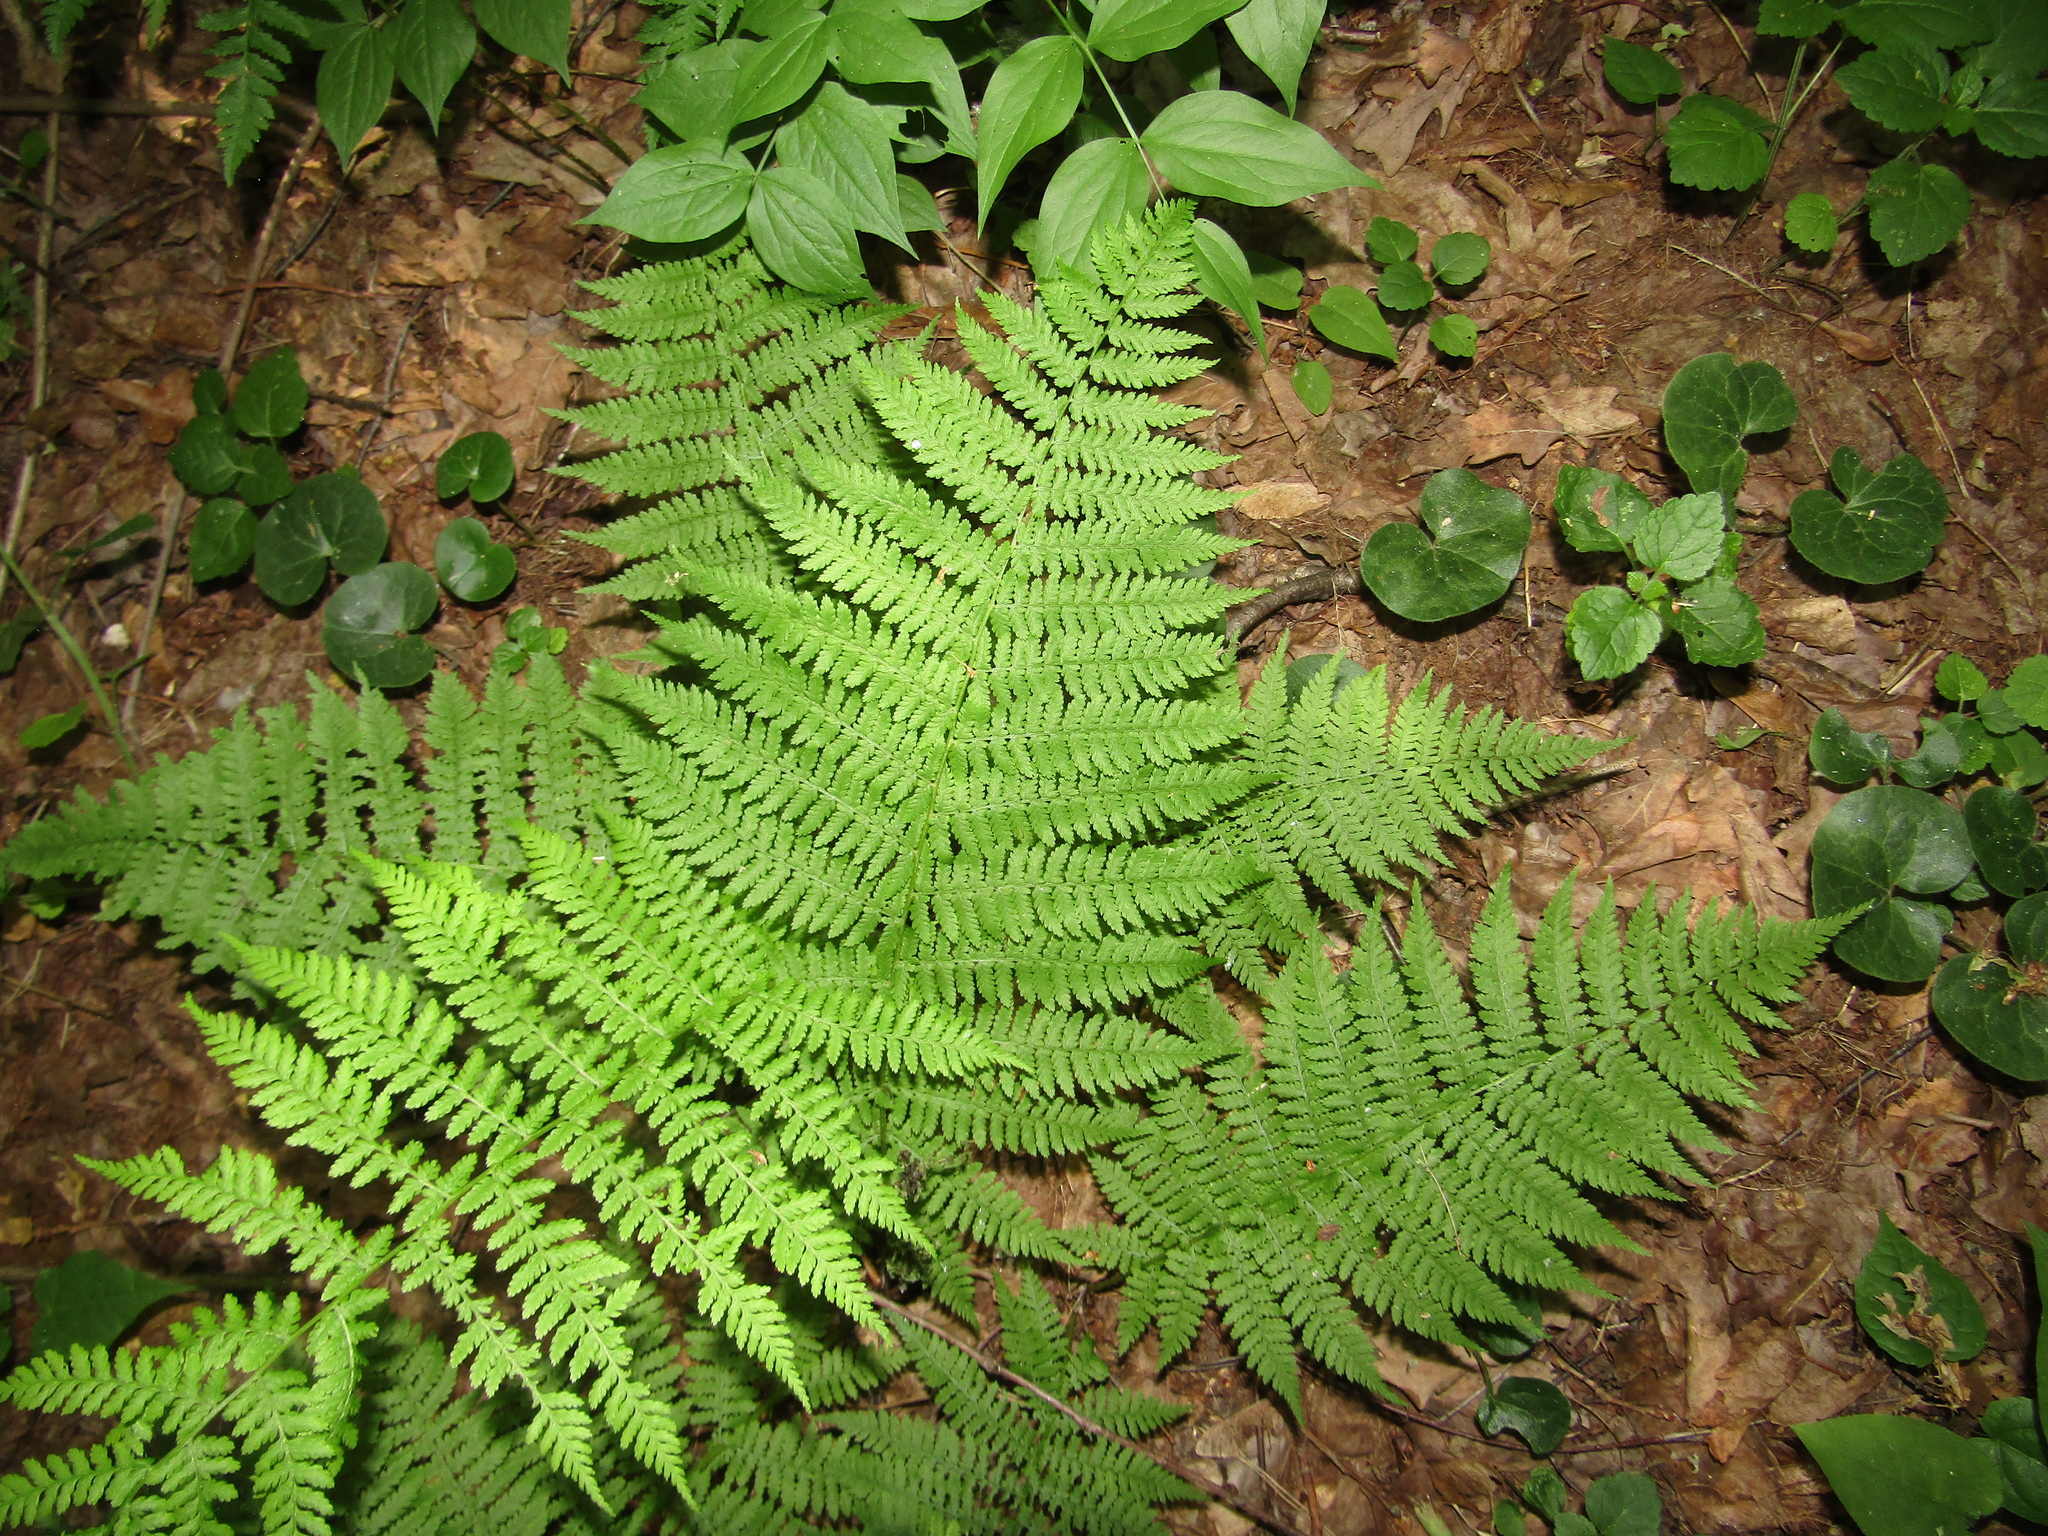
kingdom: Plantae
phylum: Tracheophyta
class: Polypodiopsida
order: Polypodiales
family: Athyriaceae
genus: Athyrium
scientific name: Athyrium filix-femina
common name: Lady fern
